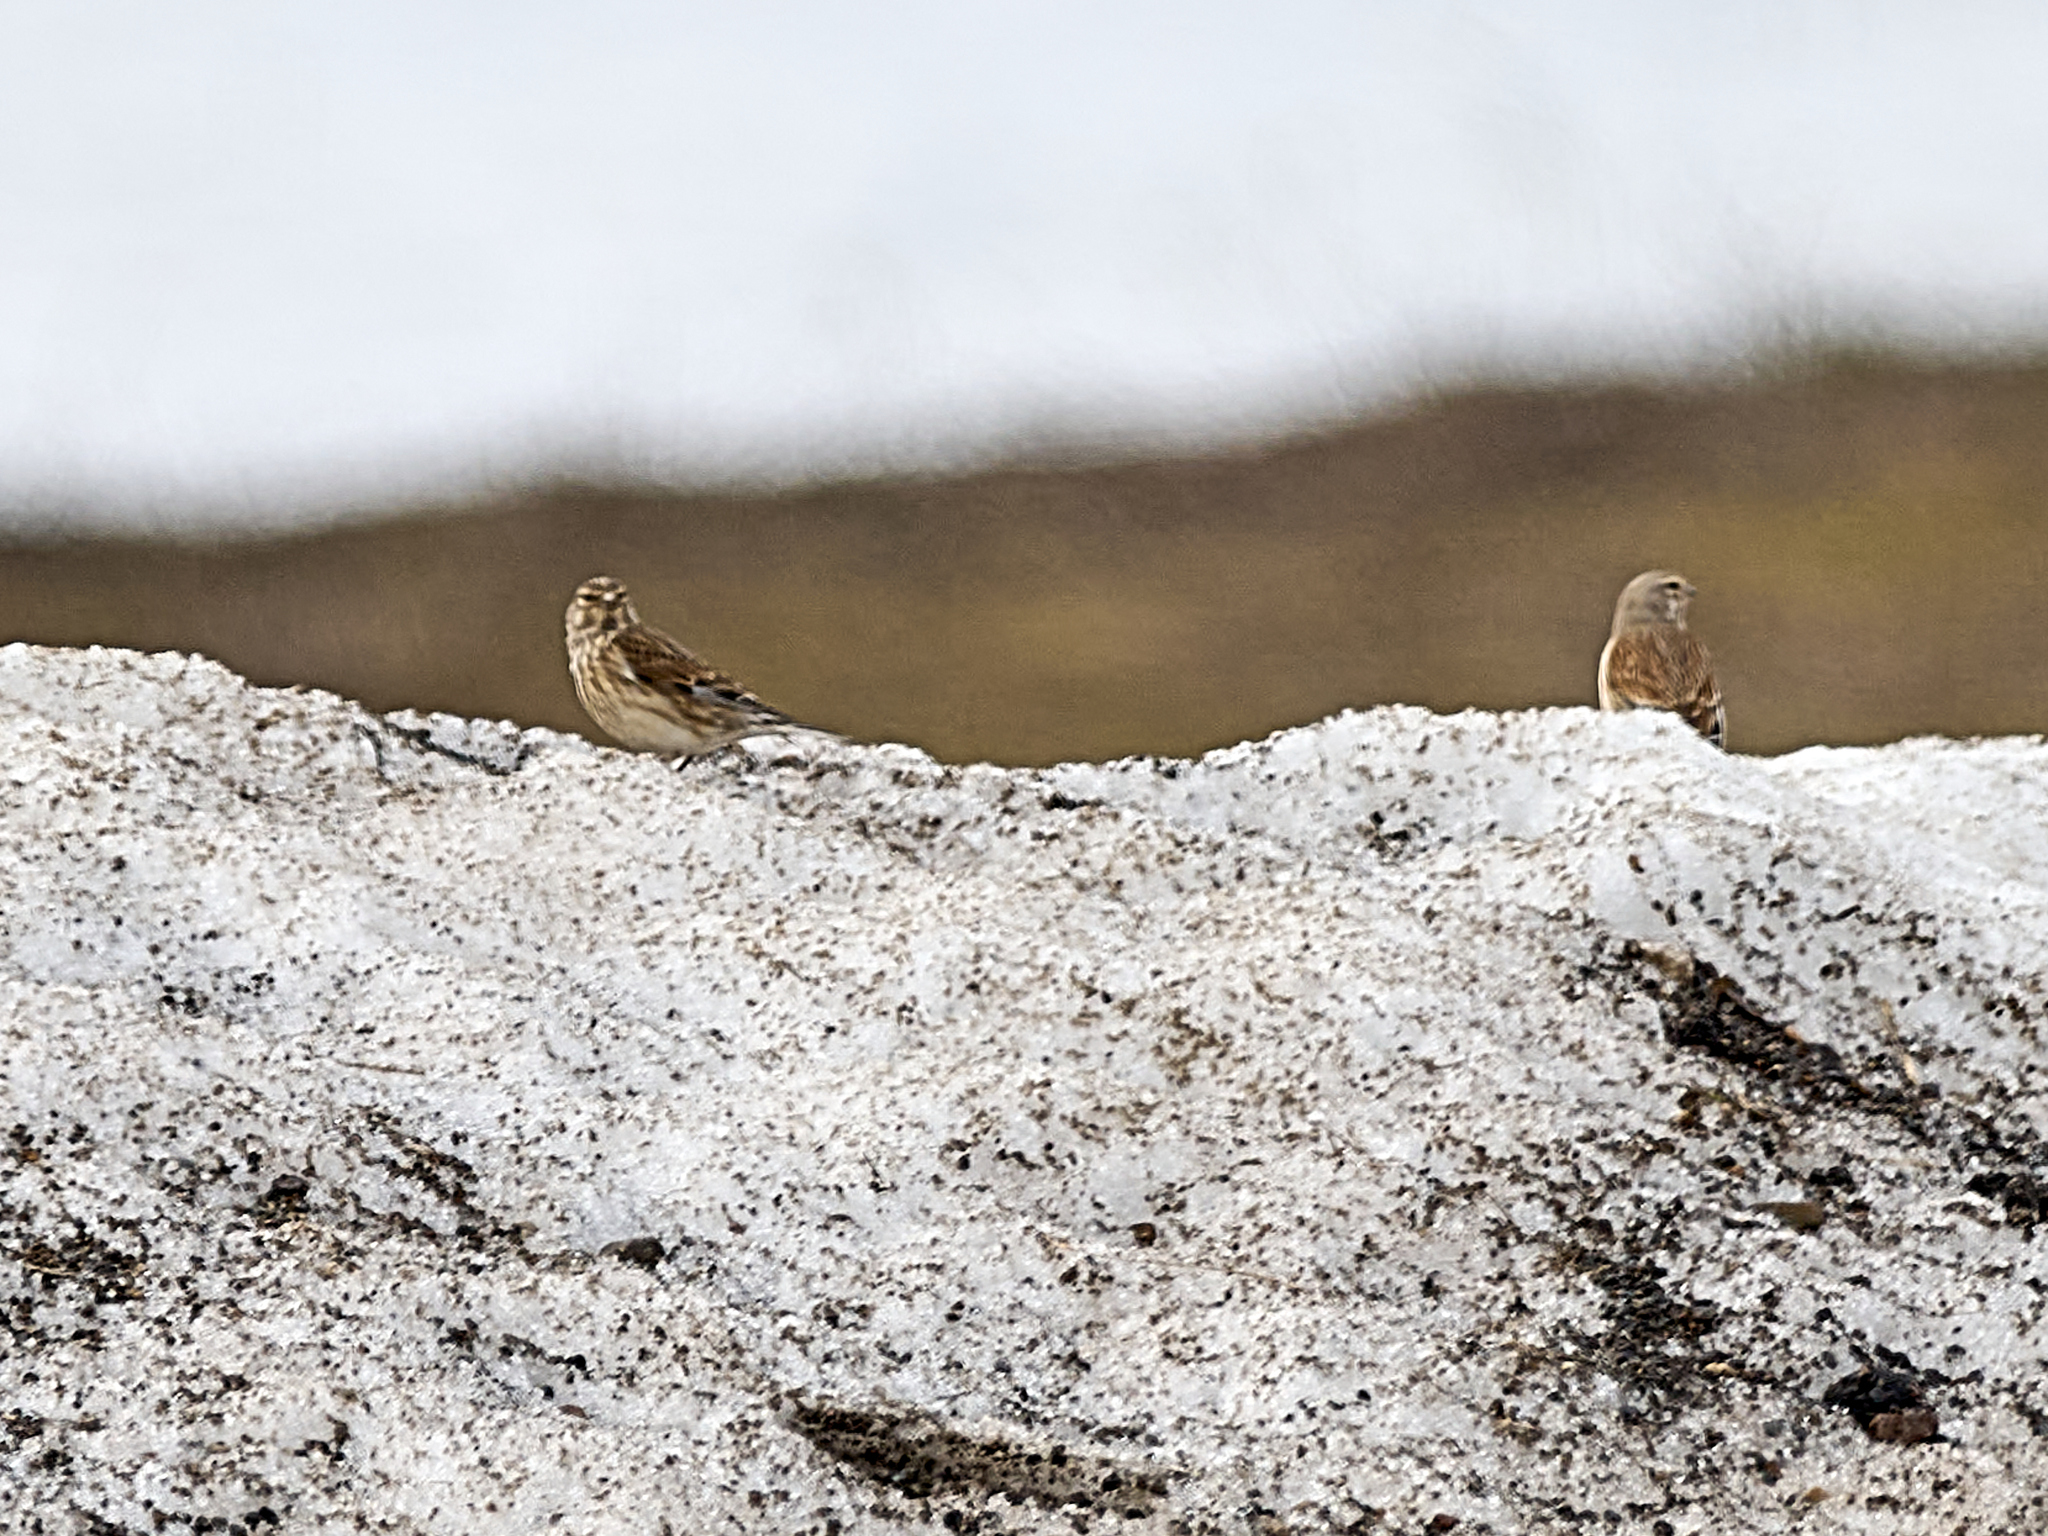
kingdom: Animalia
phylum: Chordata
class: Aves
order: Passeriformes
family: Fringillidae
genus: Linaria
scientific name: Linaria cannabina
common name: Common linnet
